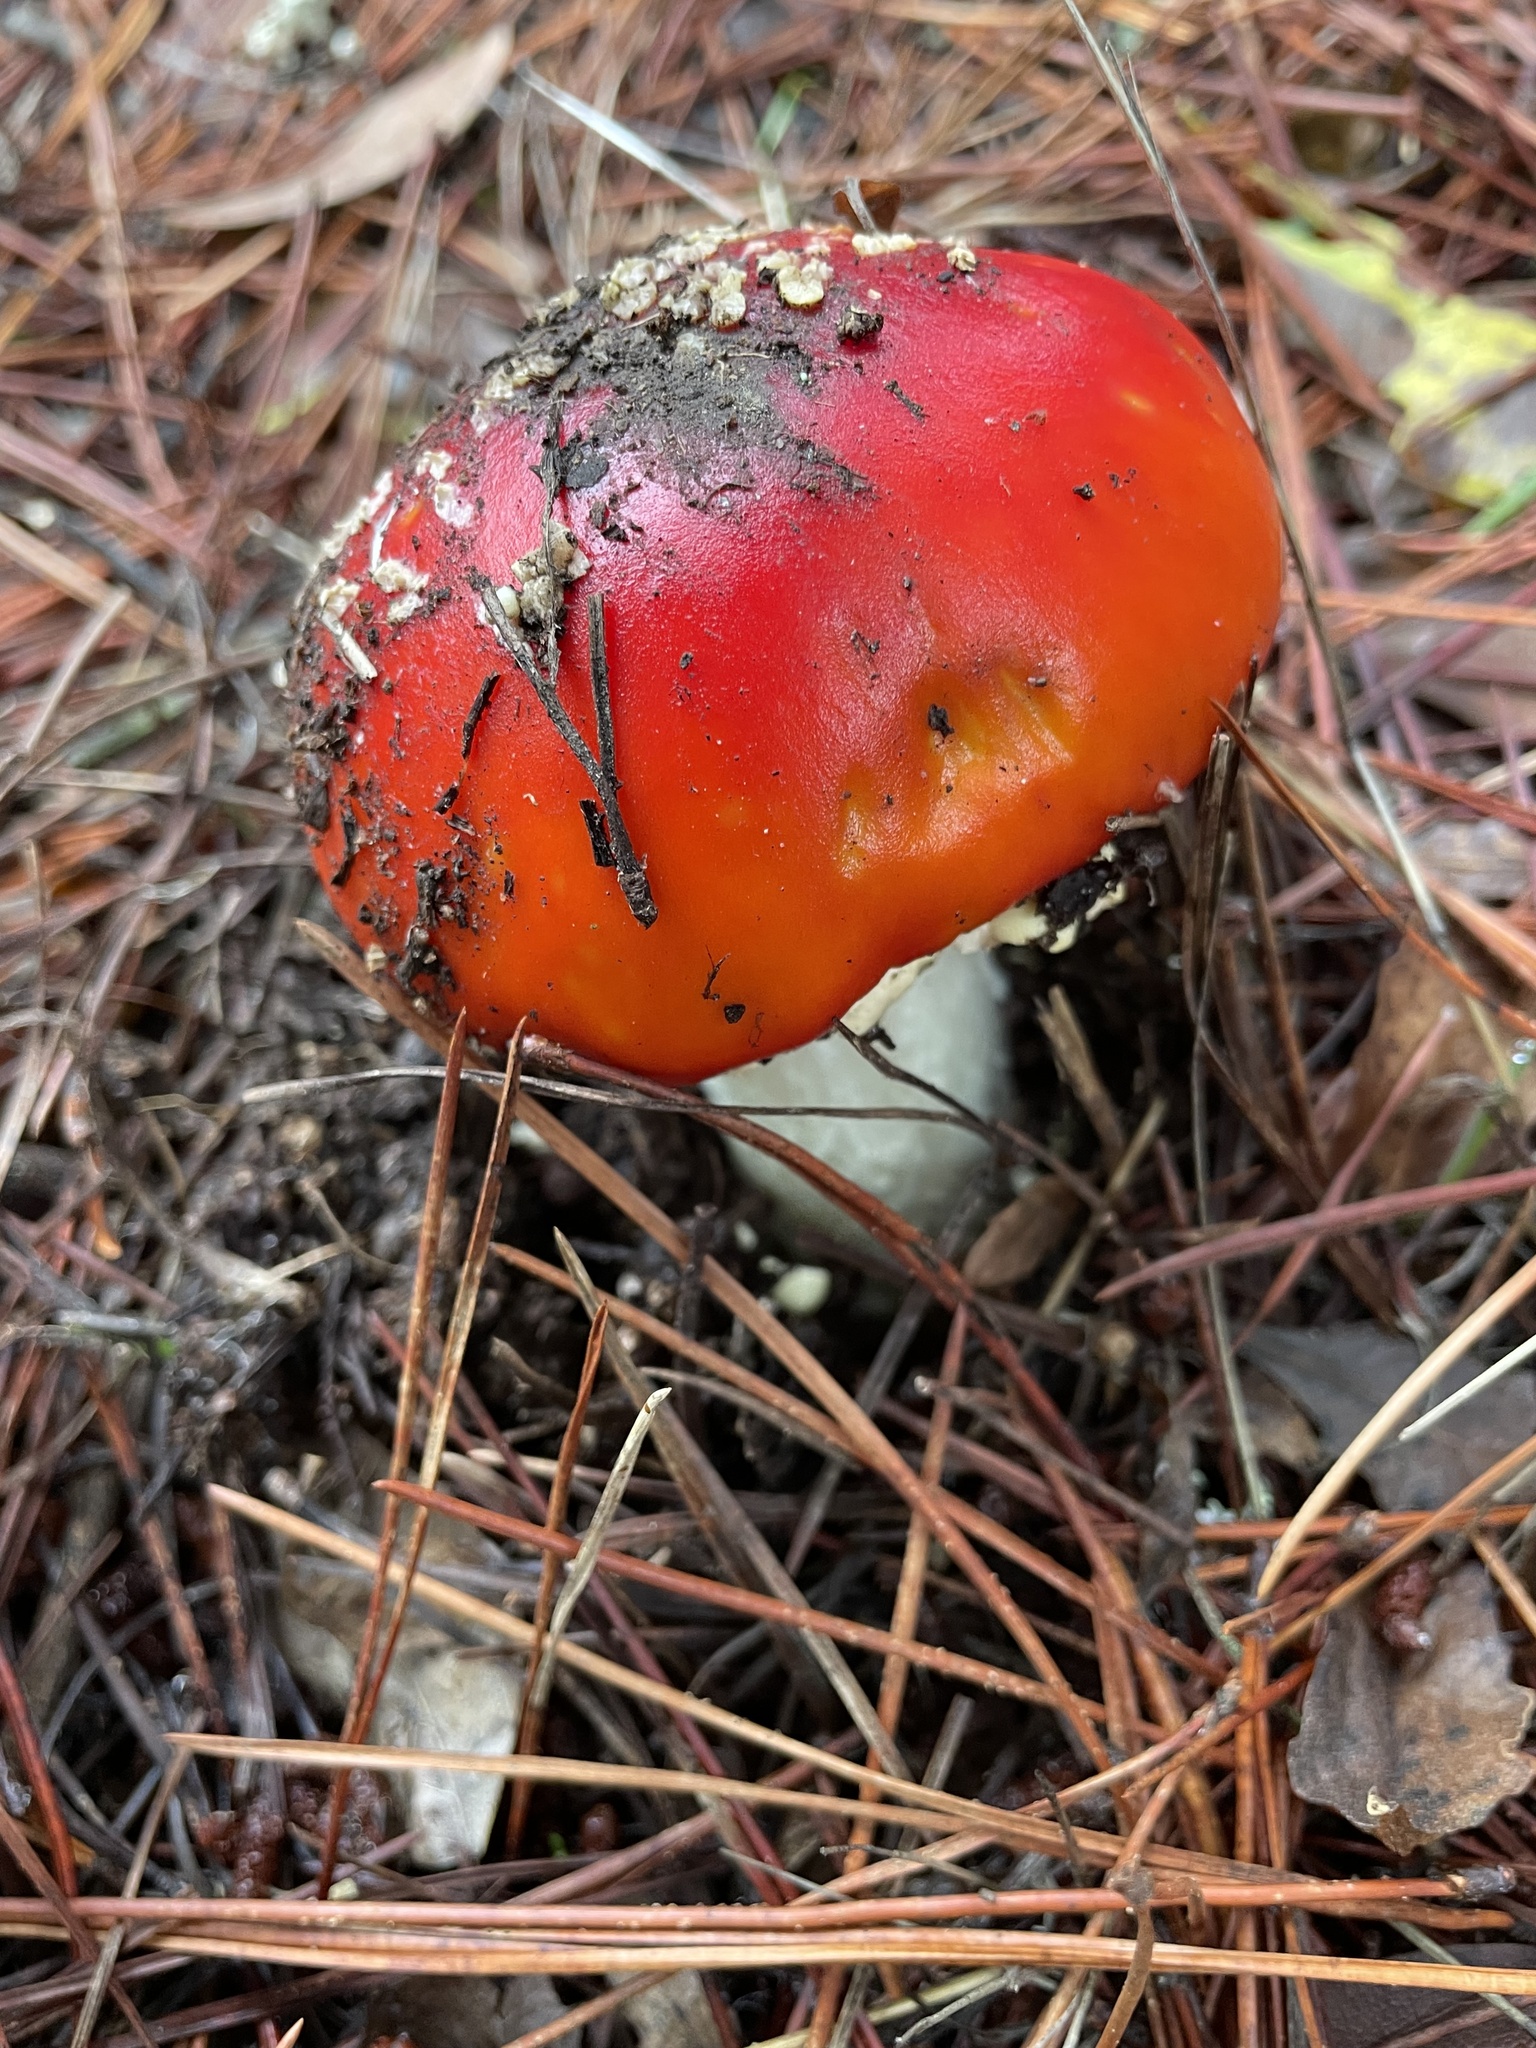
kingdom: Fungi
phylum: Basidiomycota
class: Agaricomycetes
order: Agaricales
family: Amanitaceae
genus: Amanita
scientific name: Amanita muscaria
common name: Fly agaric
